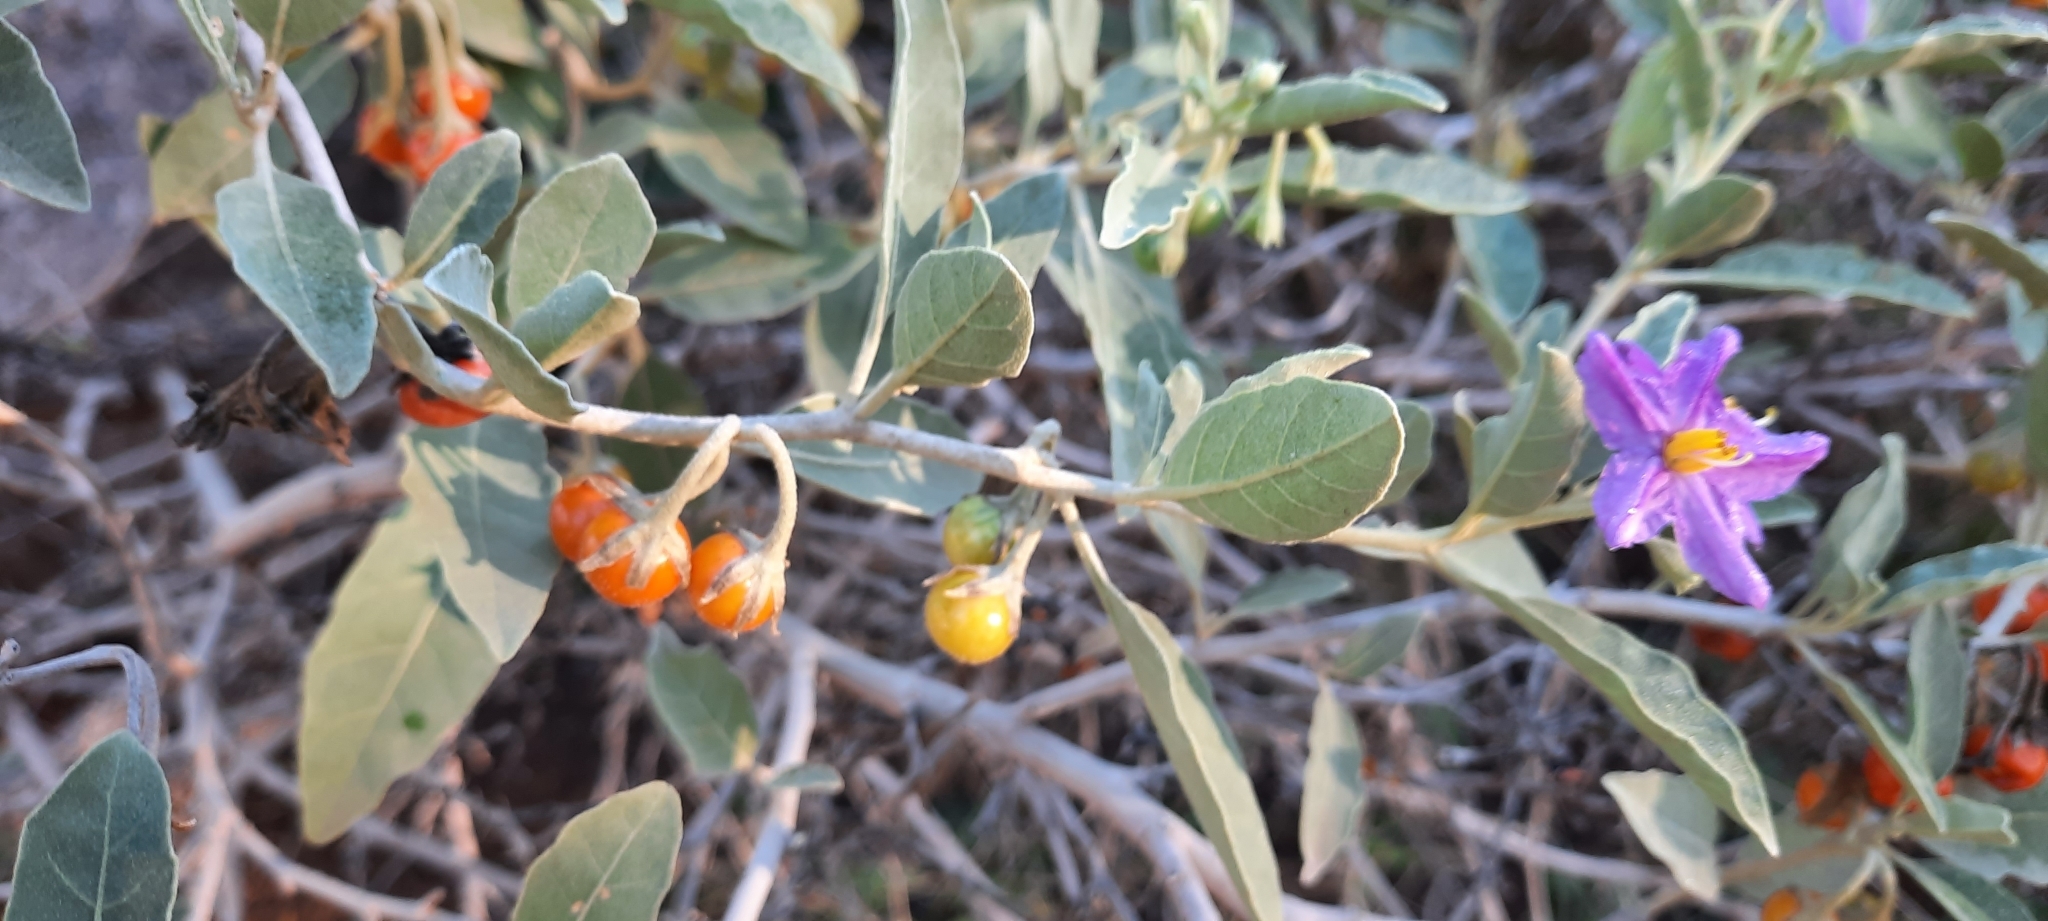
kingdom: Plantae
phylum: Tracheophyta
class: Magnoliopsida
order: Solanales
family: Solanaceae
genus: Solanum
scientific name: Solanum burchellii
